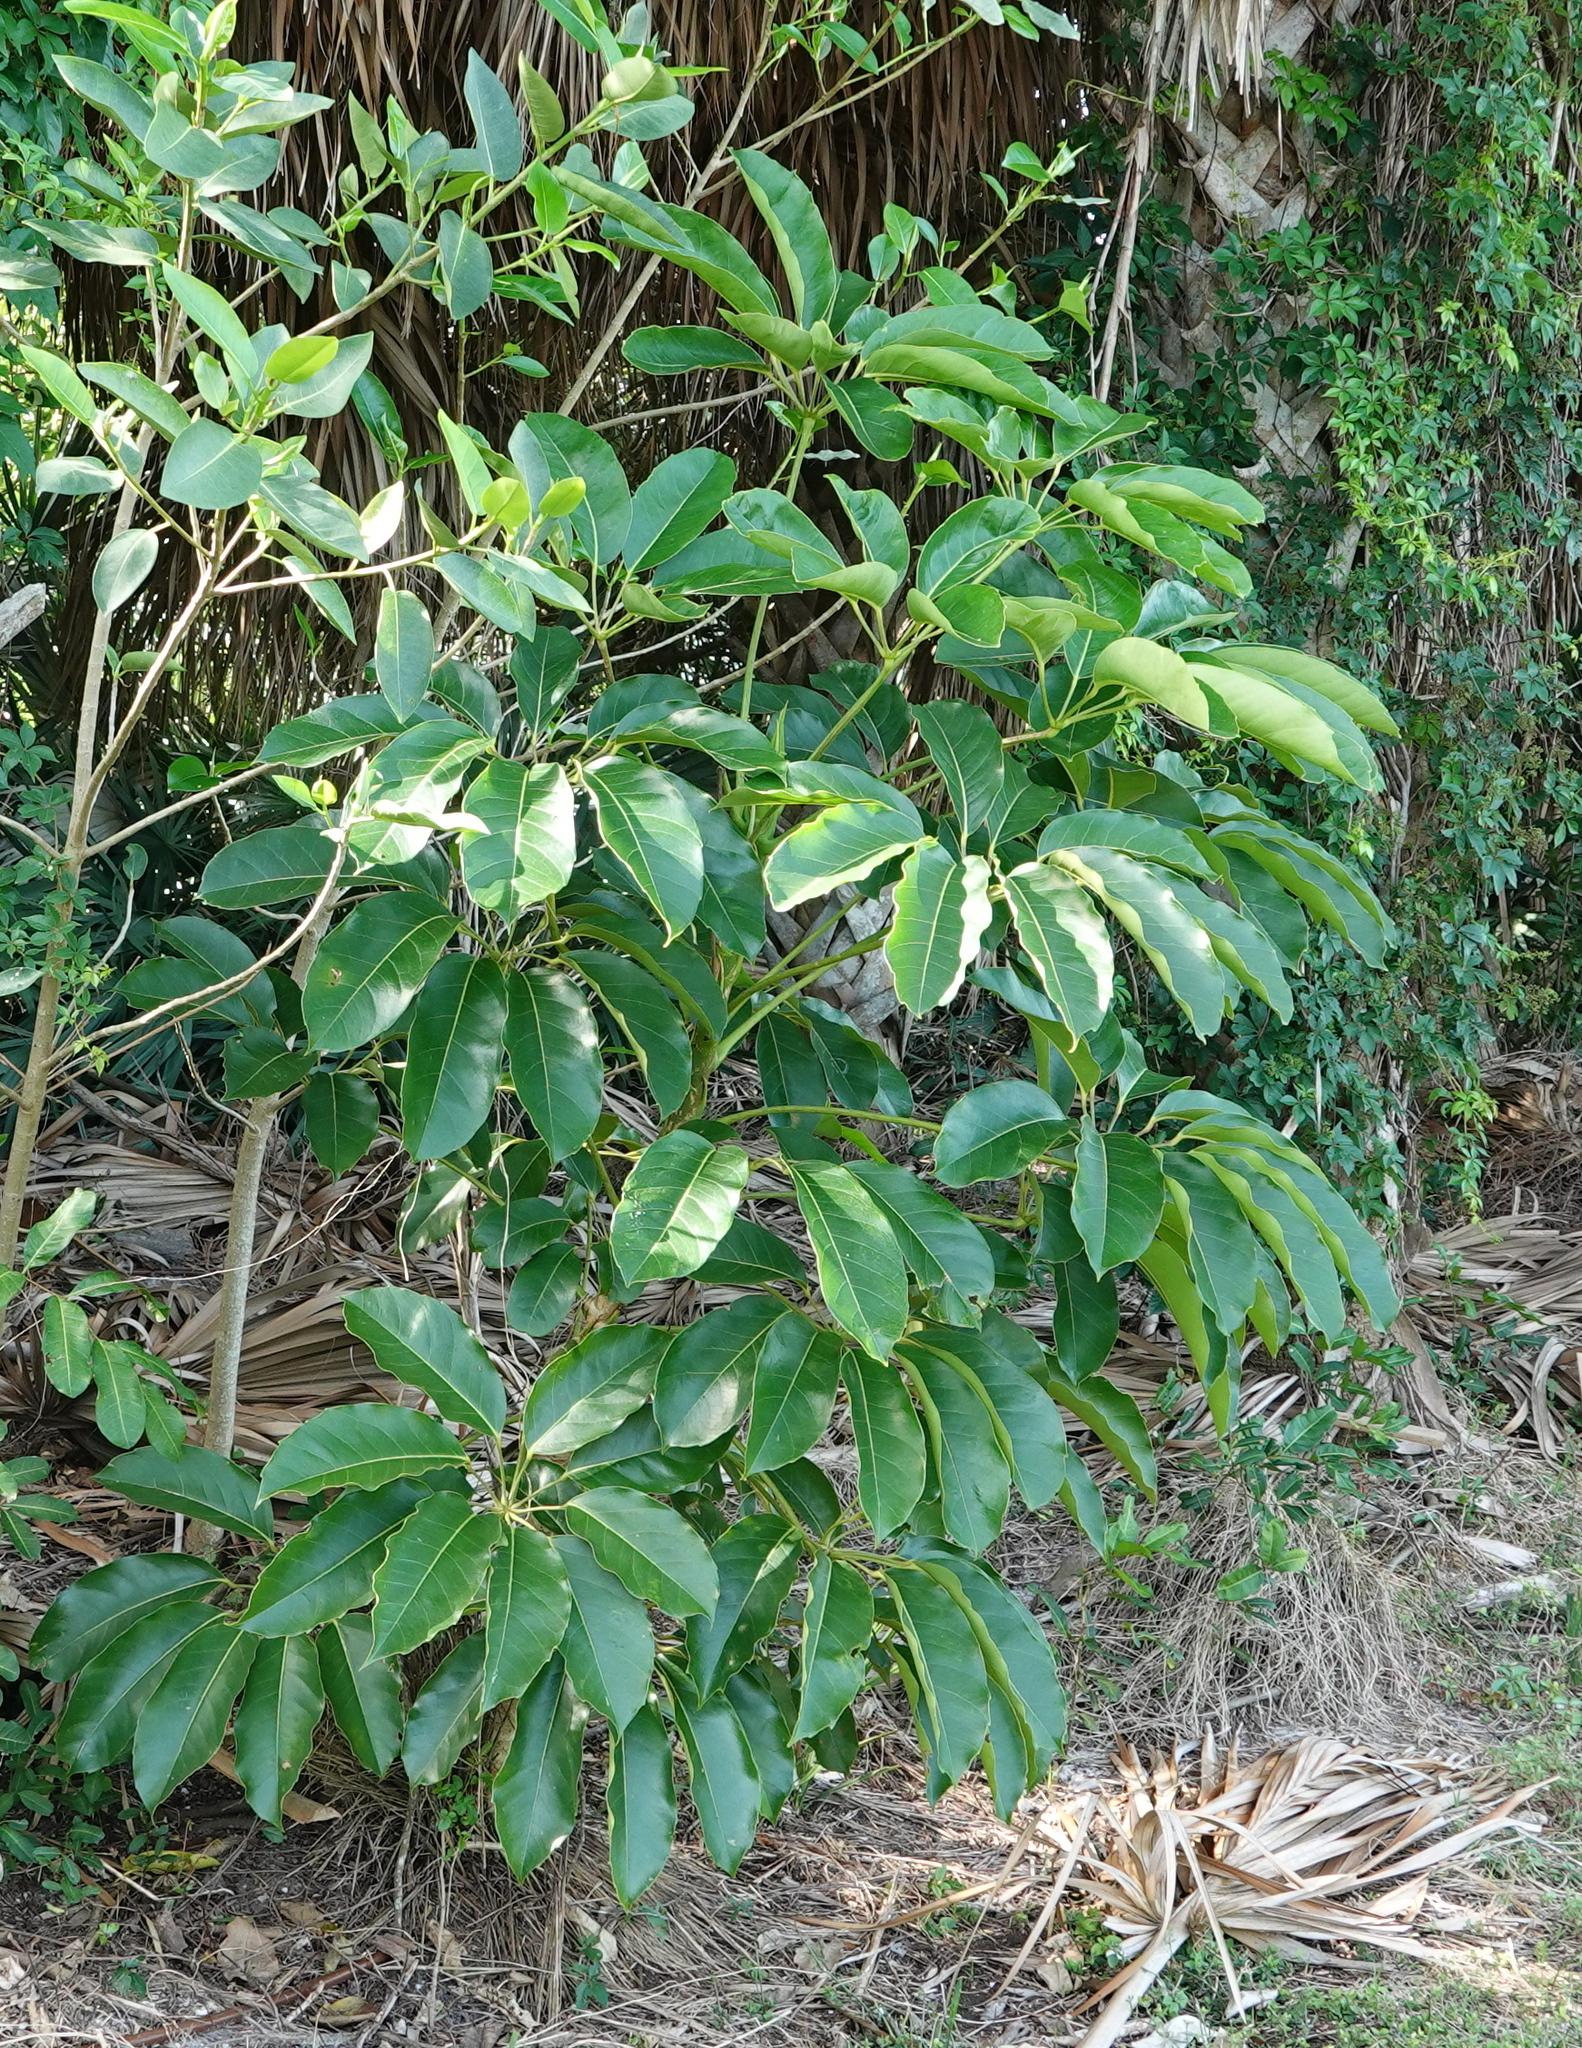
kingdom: Plantae
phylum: Tracheophyta
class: Magnoliopsida
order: Apiales
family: Araliaceae
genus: Heptapleurum
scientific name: Heptapleurum actinophyllum
